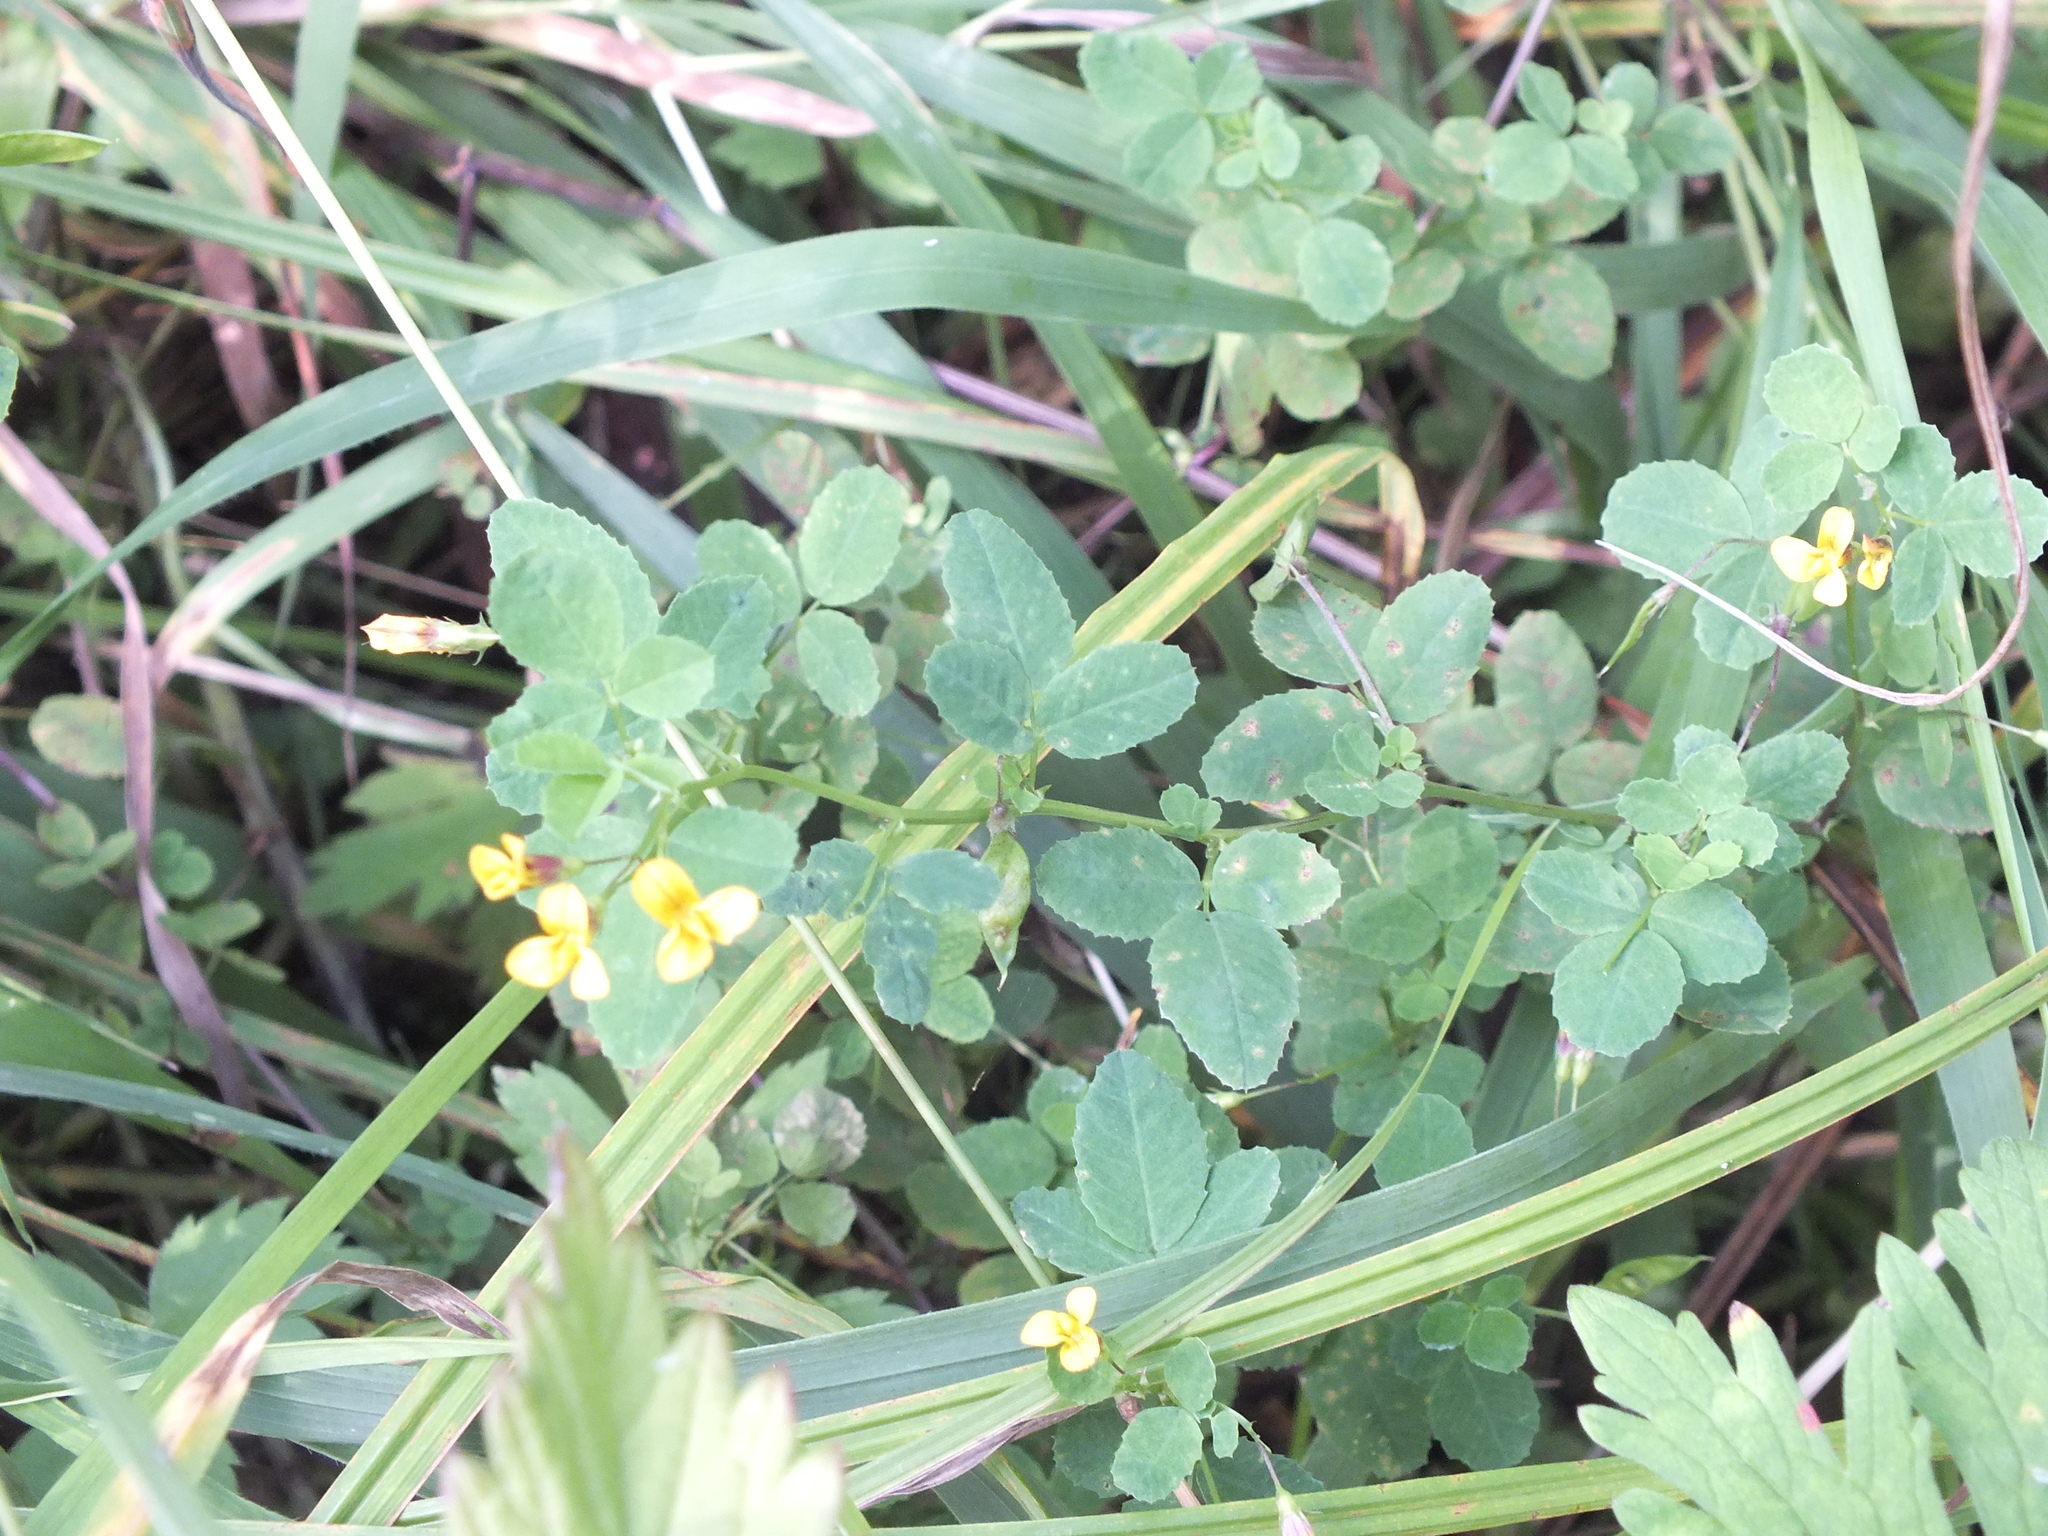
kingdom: Plantae
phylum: Tracheophyta
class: Magnoliopsida
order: Fabales
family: Fabaceae
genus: Medicago
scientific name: Medicago platycarpos
